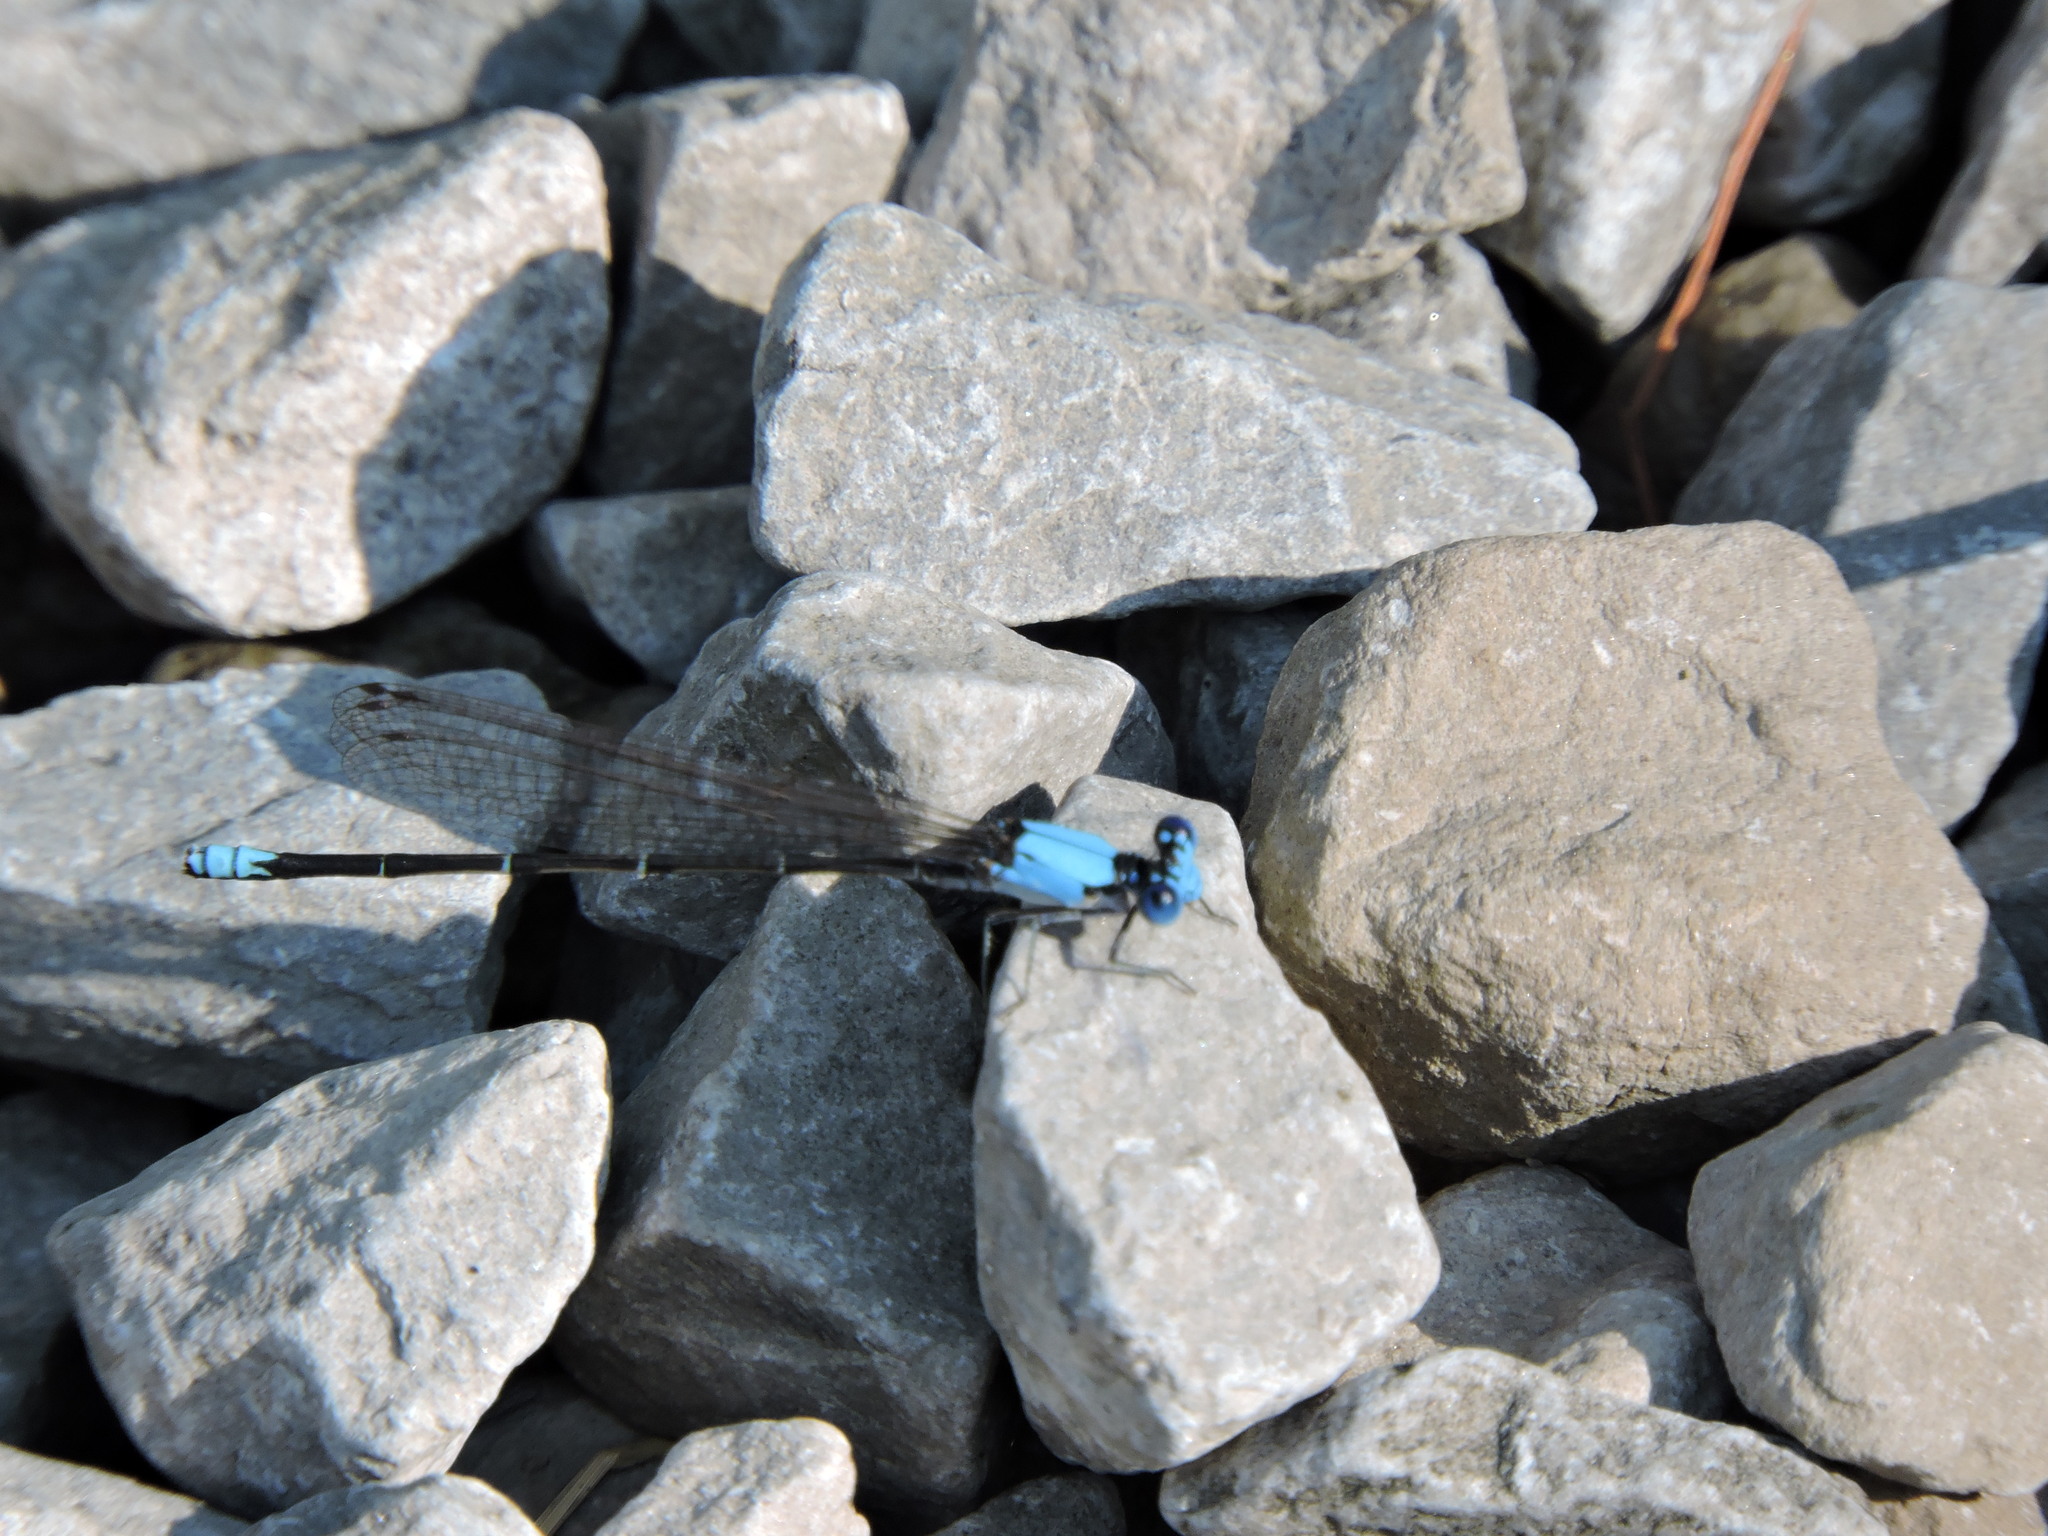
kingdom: Animalia
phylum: Arthropoda
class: Insecta
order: Odonata
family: Coenagrionidae
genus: Argia
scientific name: Argia apicalis
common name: Blue-fronted dancer
